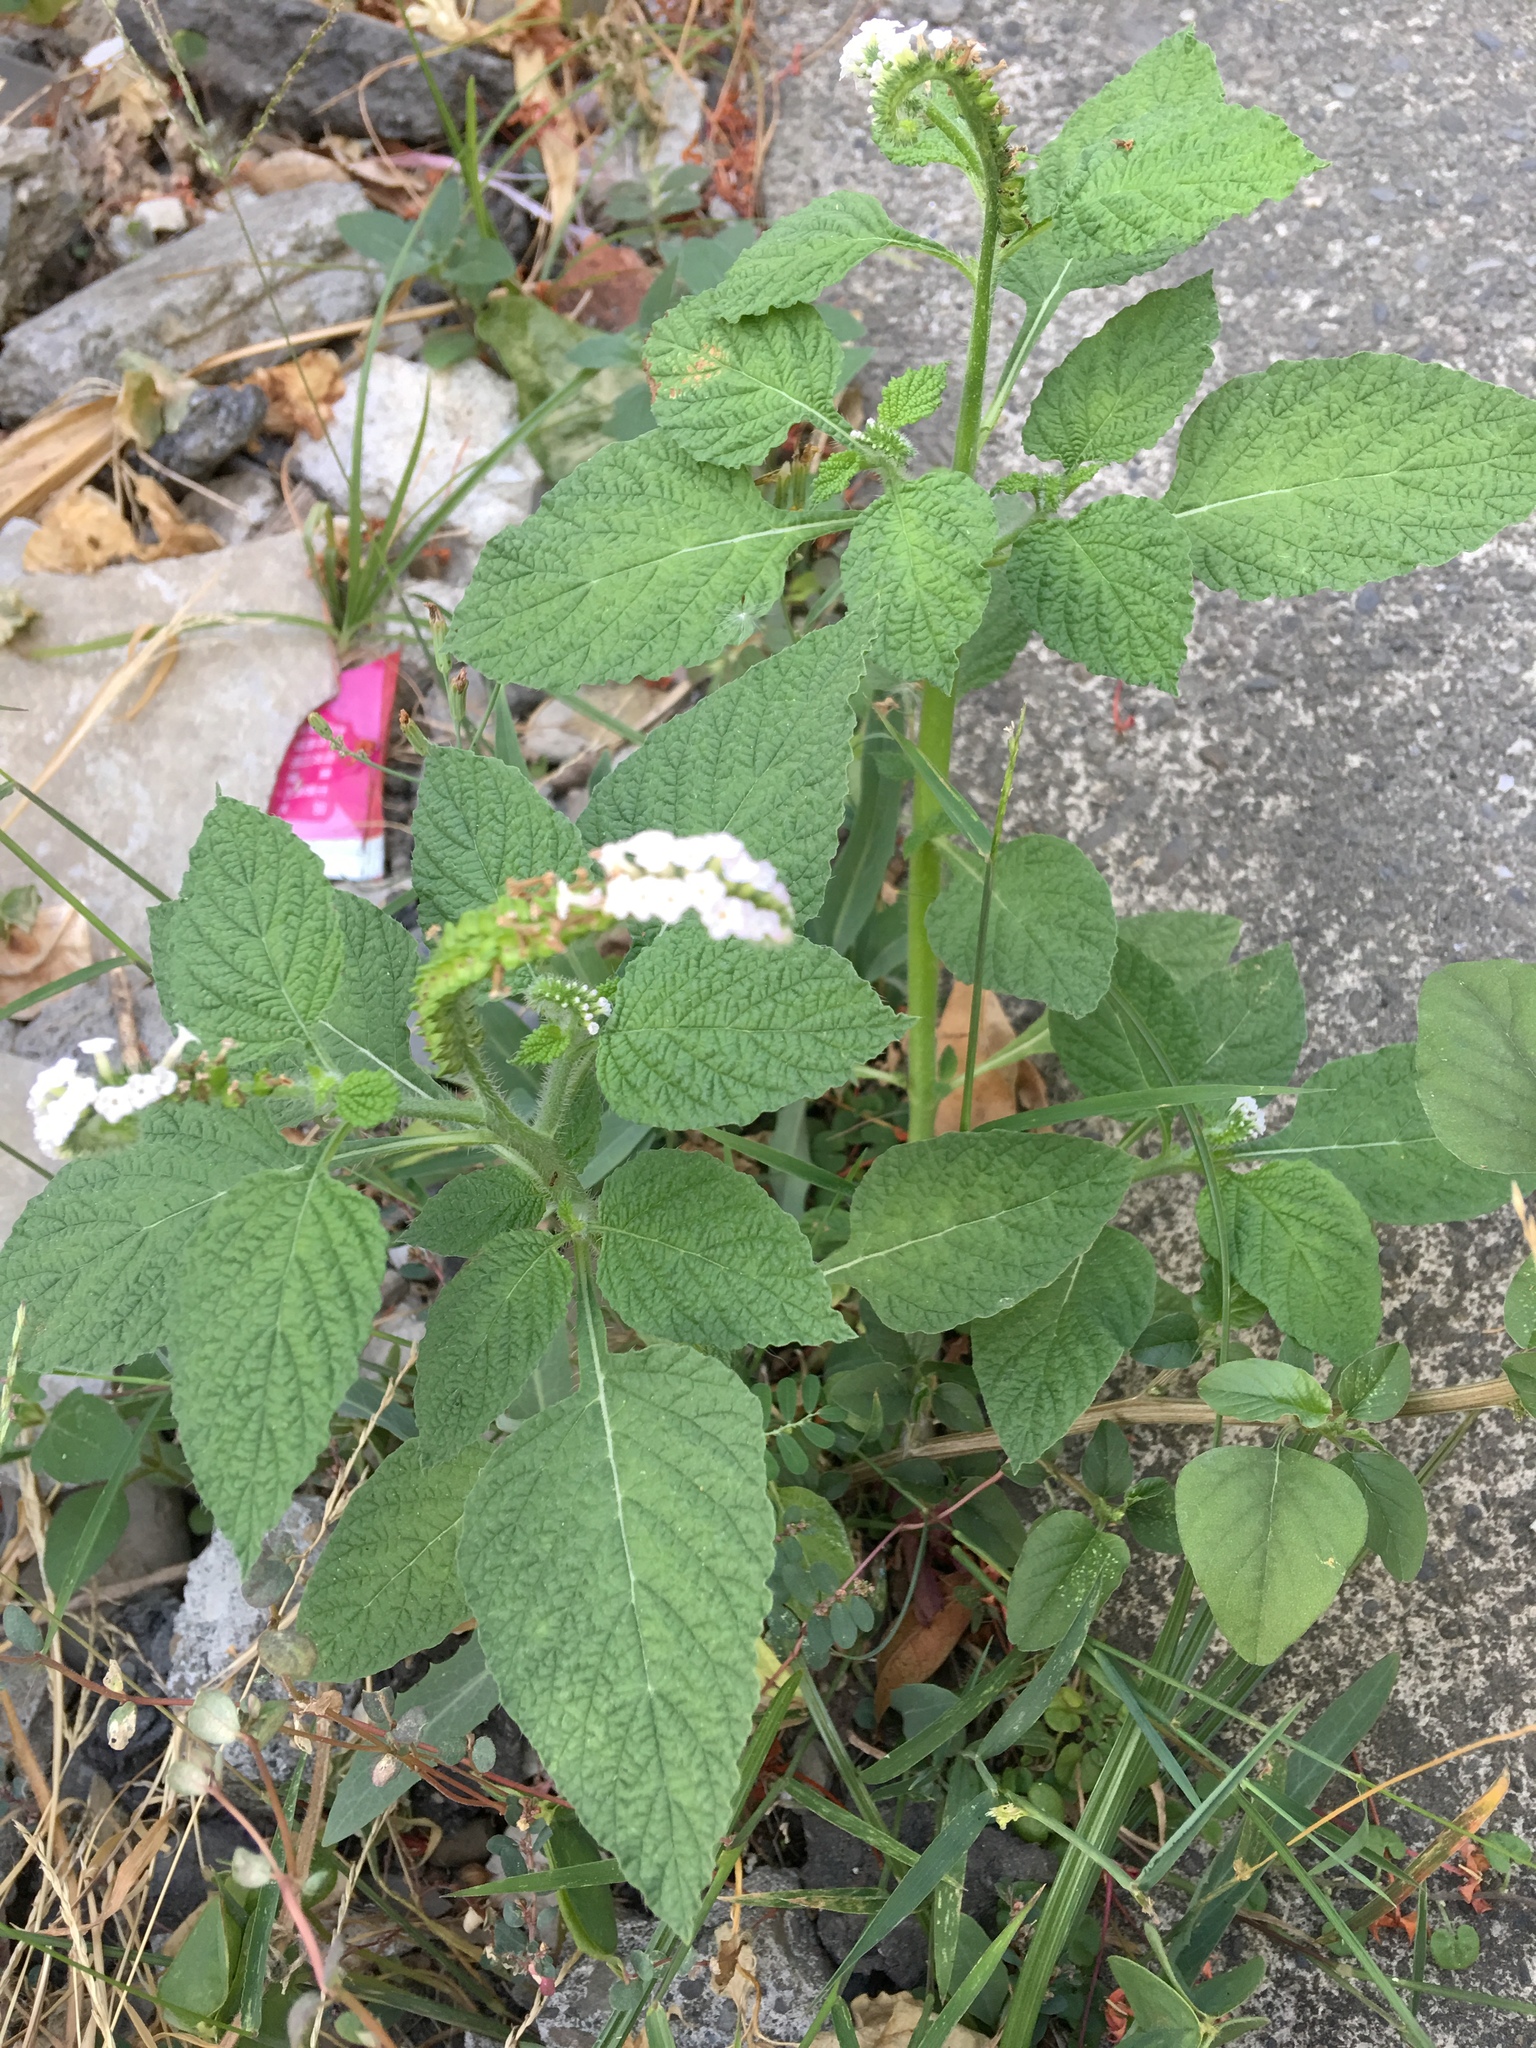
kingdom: Plantae
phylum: Tracheophyta
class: Magnoliopsida
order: Boraginales
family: Heliotropiaceae
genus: Heliotropium
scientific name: Heliotropium indicum
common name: Indian heliotrope
